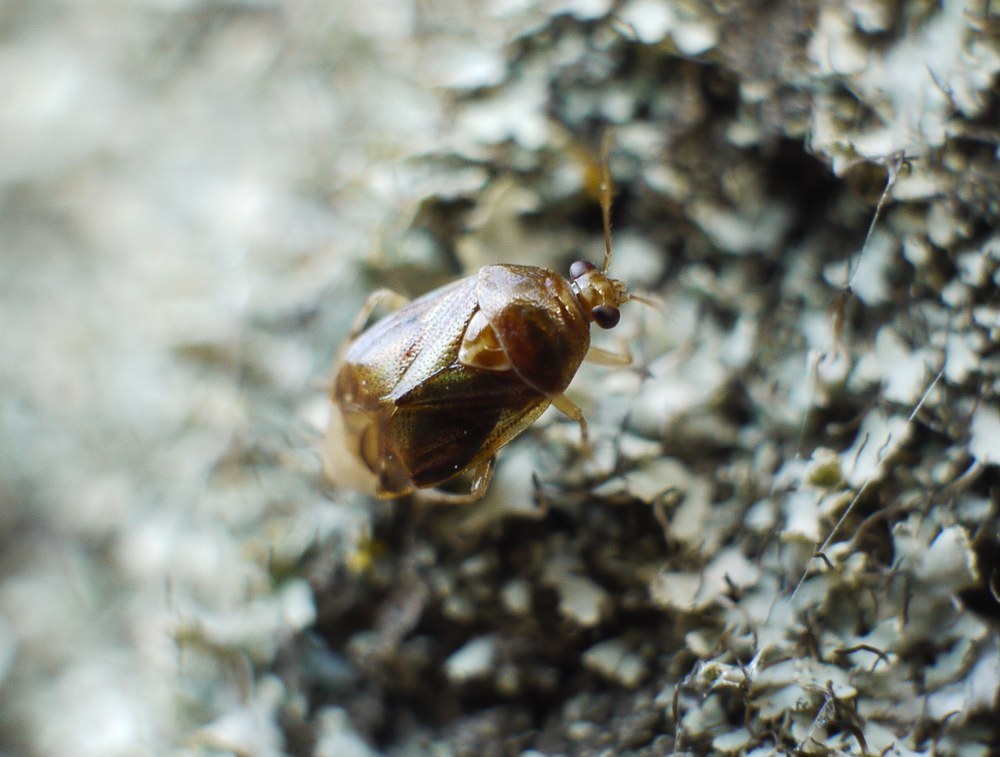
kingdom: Animalia
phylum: Arthropoda
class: Insecta
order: Hemiptera
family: Miridae
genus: Deraeocoris
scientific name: Deraeocoris lutescens
